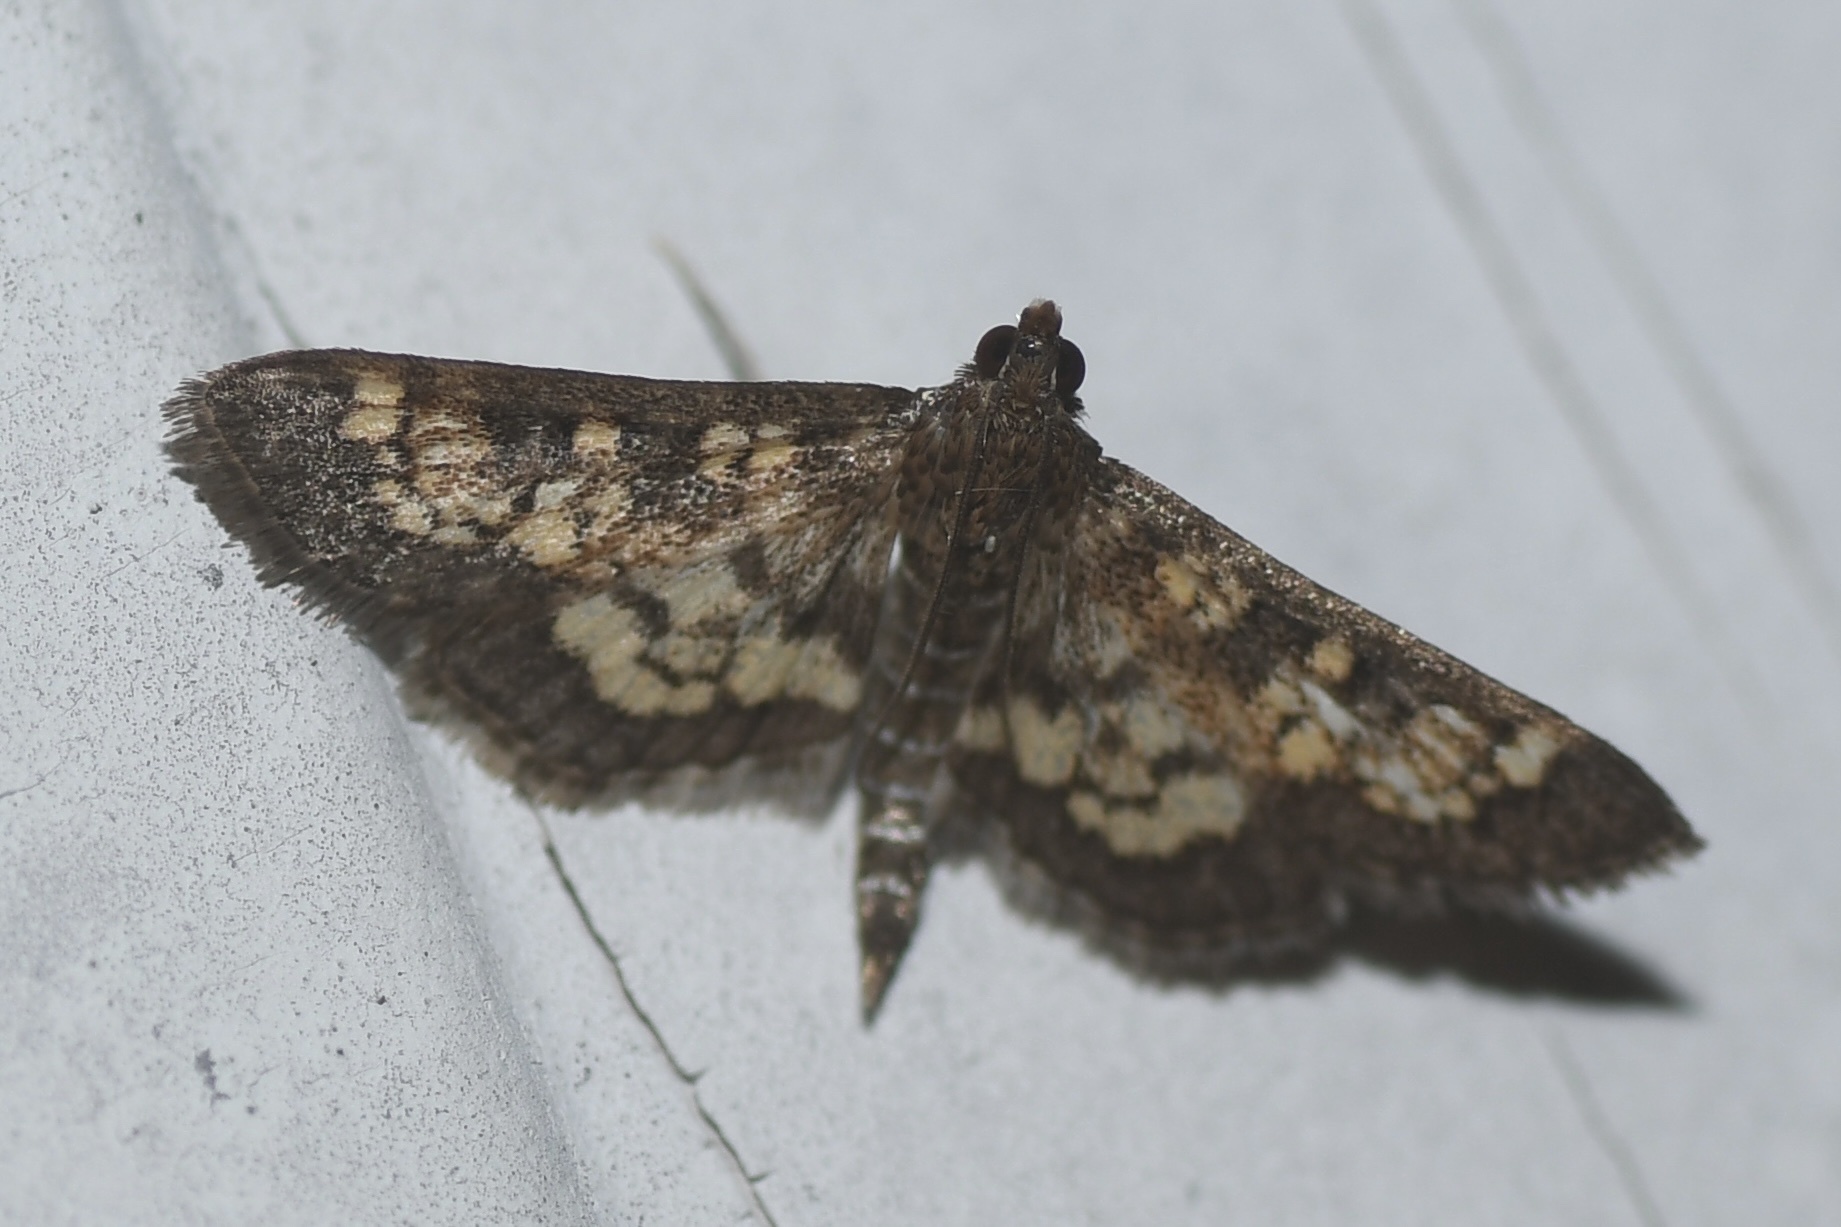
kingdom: Animalia
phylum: Arthropoda
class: Insecta
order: Lepidoptera
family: Crambidae
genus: Epipagis
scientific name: Epipagis adipaloides
